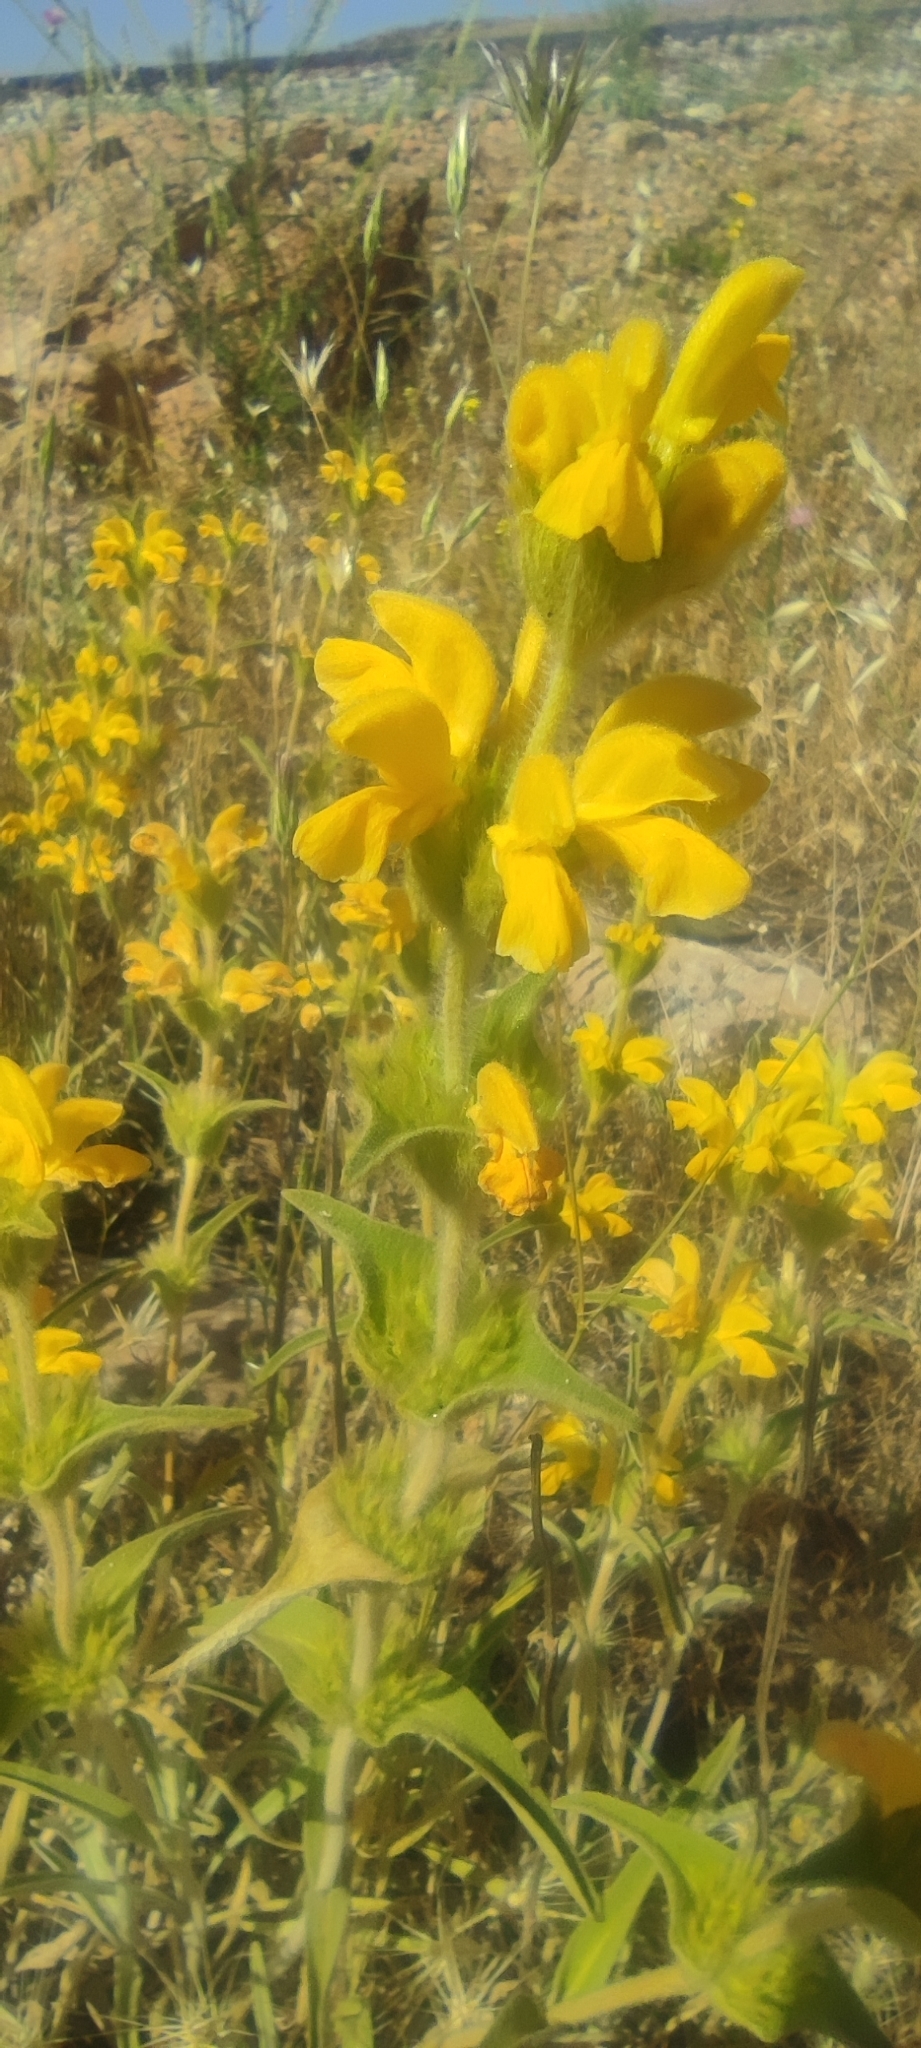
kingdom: Plantae
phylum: Tracheophyta
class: Magnoliopsida
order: Lamiales
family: Lamiaceae
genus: Phlomis
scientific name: Phlomis lychnitis
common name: Lampwickplant
